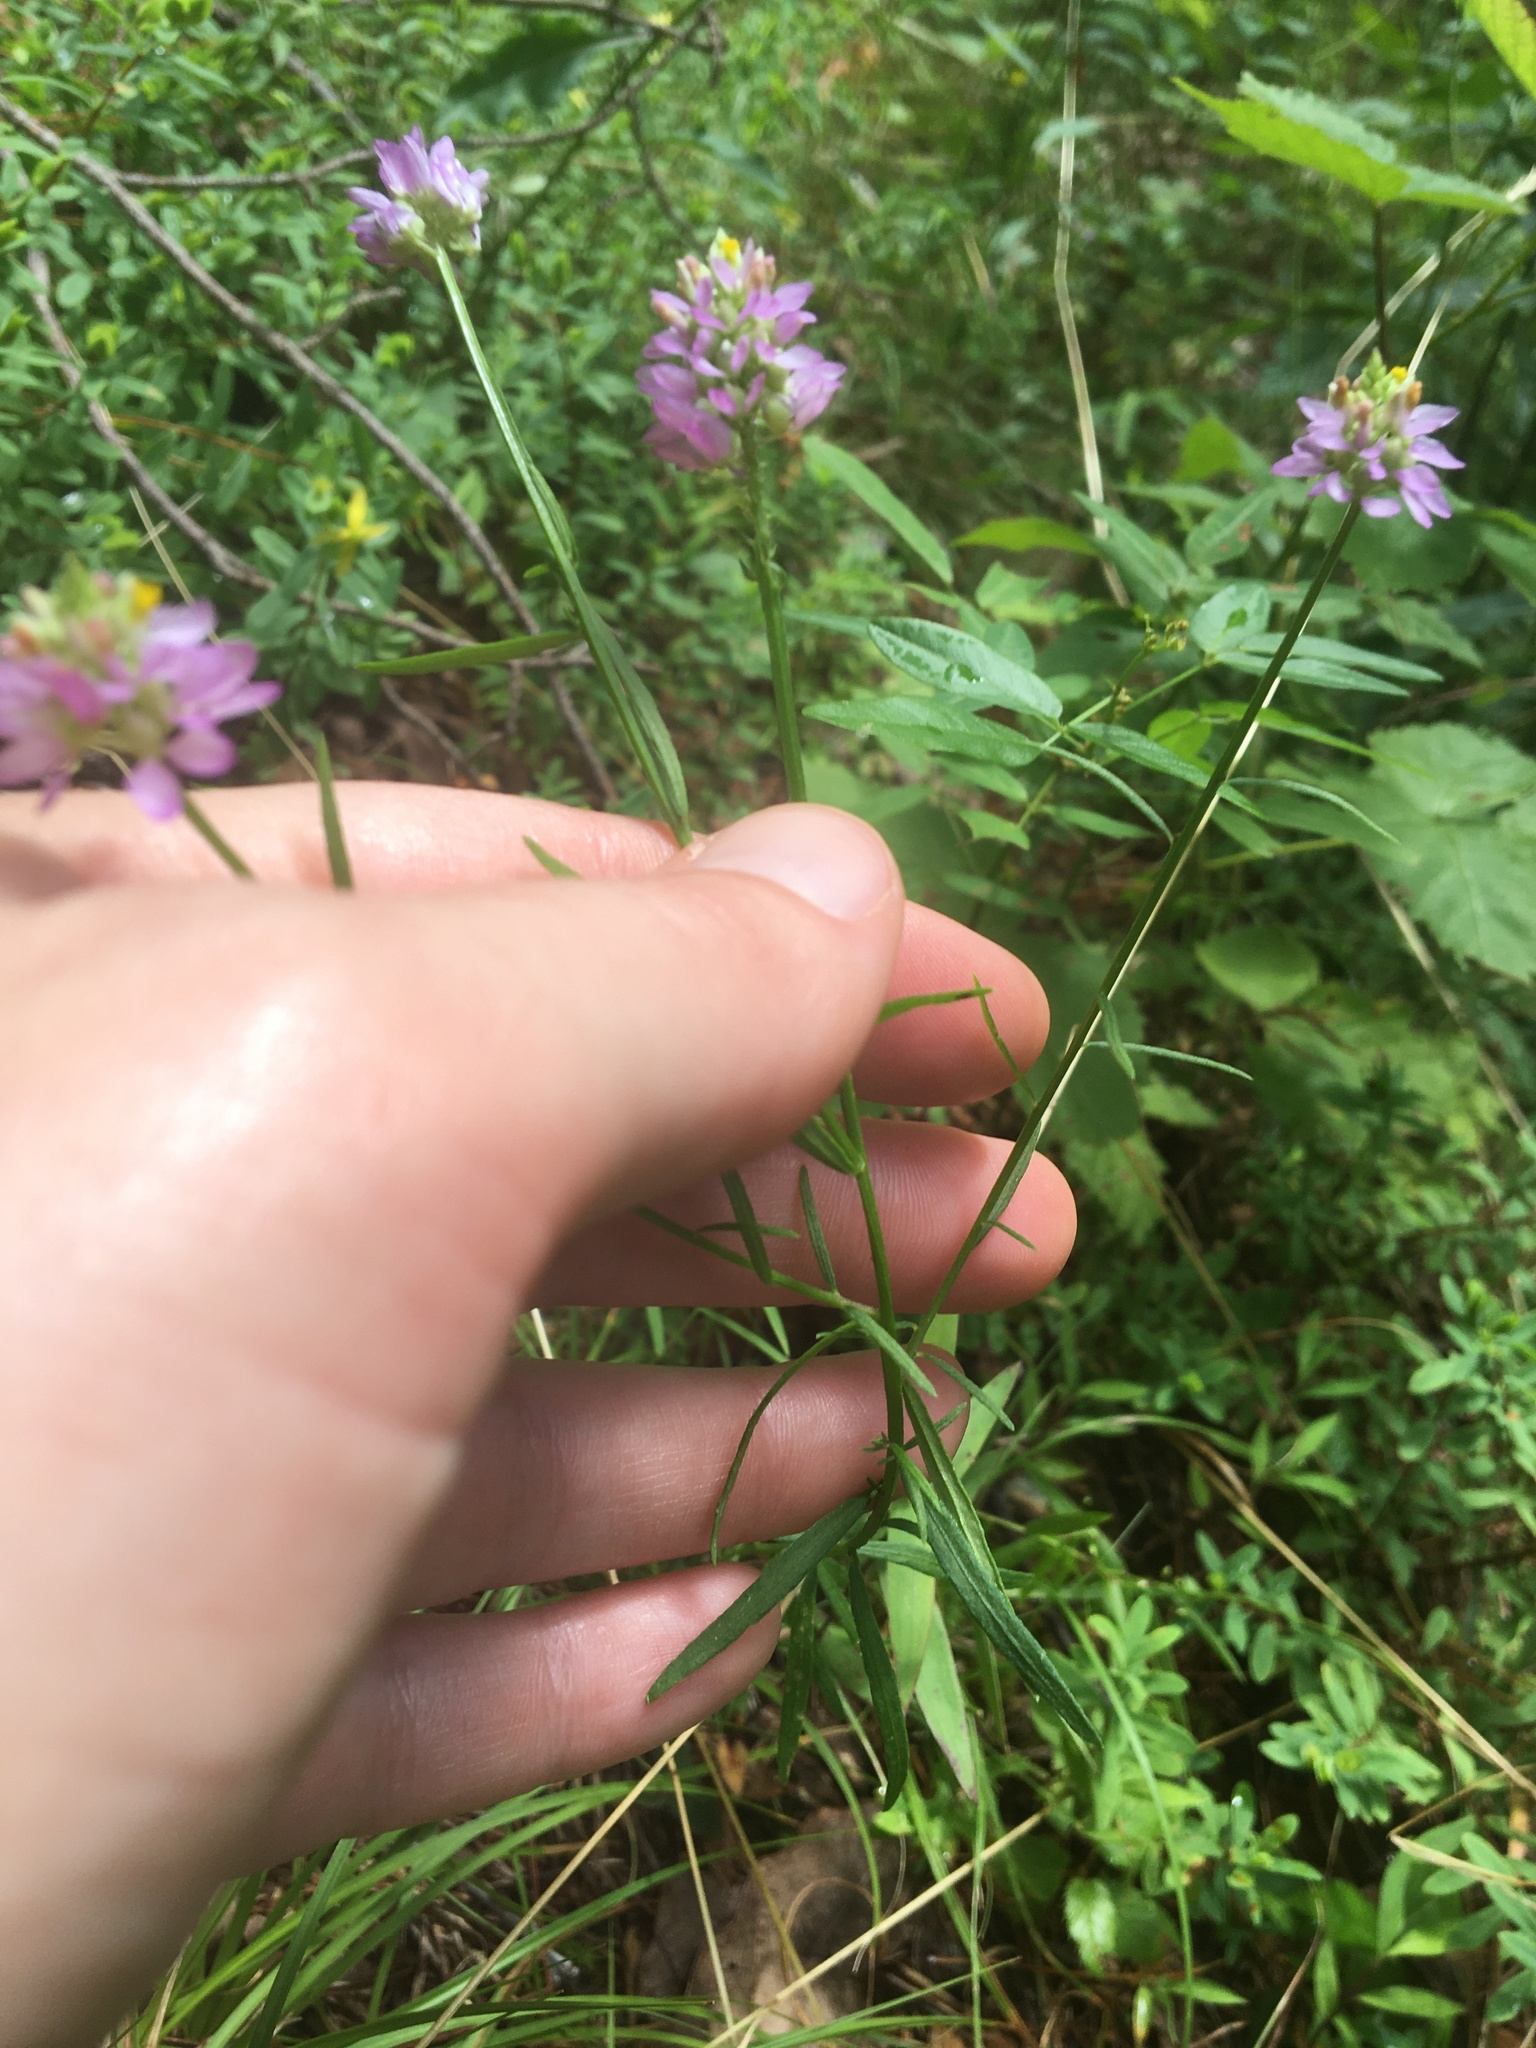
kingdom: Plantae
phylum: Tracheophyta
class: Magnoliopsida
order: Fabales
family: Polygalaceae
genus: Polygala
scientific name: Polygala curtissii
